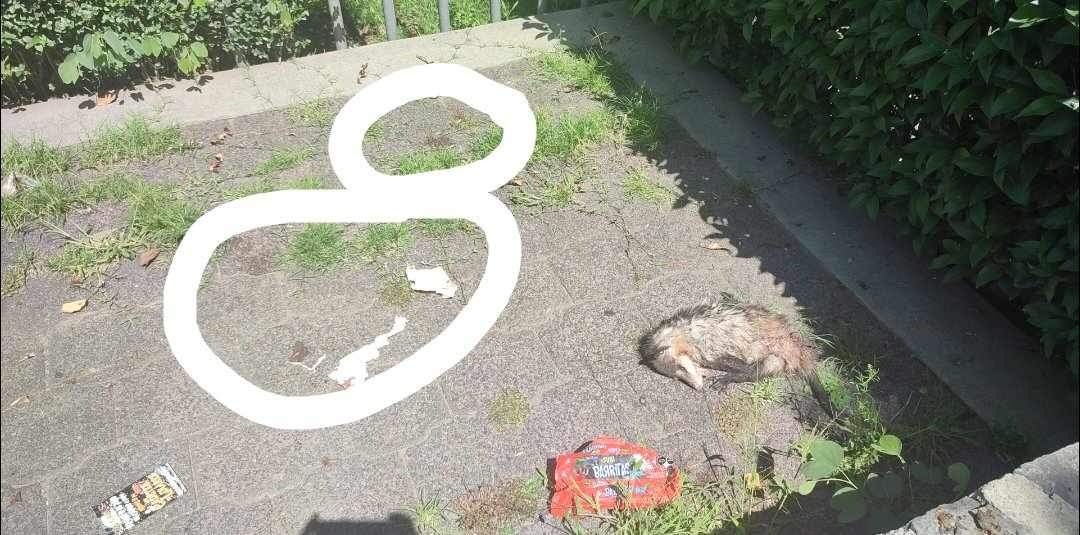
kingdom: Animalia
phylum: Chordata
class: Mammalia
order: Didelphimorphia
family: Didelphidae
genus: Didelphis
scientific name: Didelphis virginiana
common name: Virginia opossum
